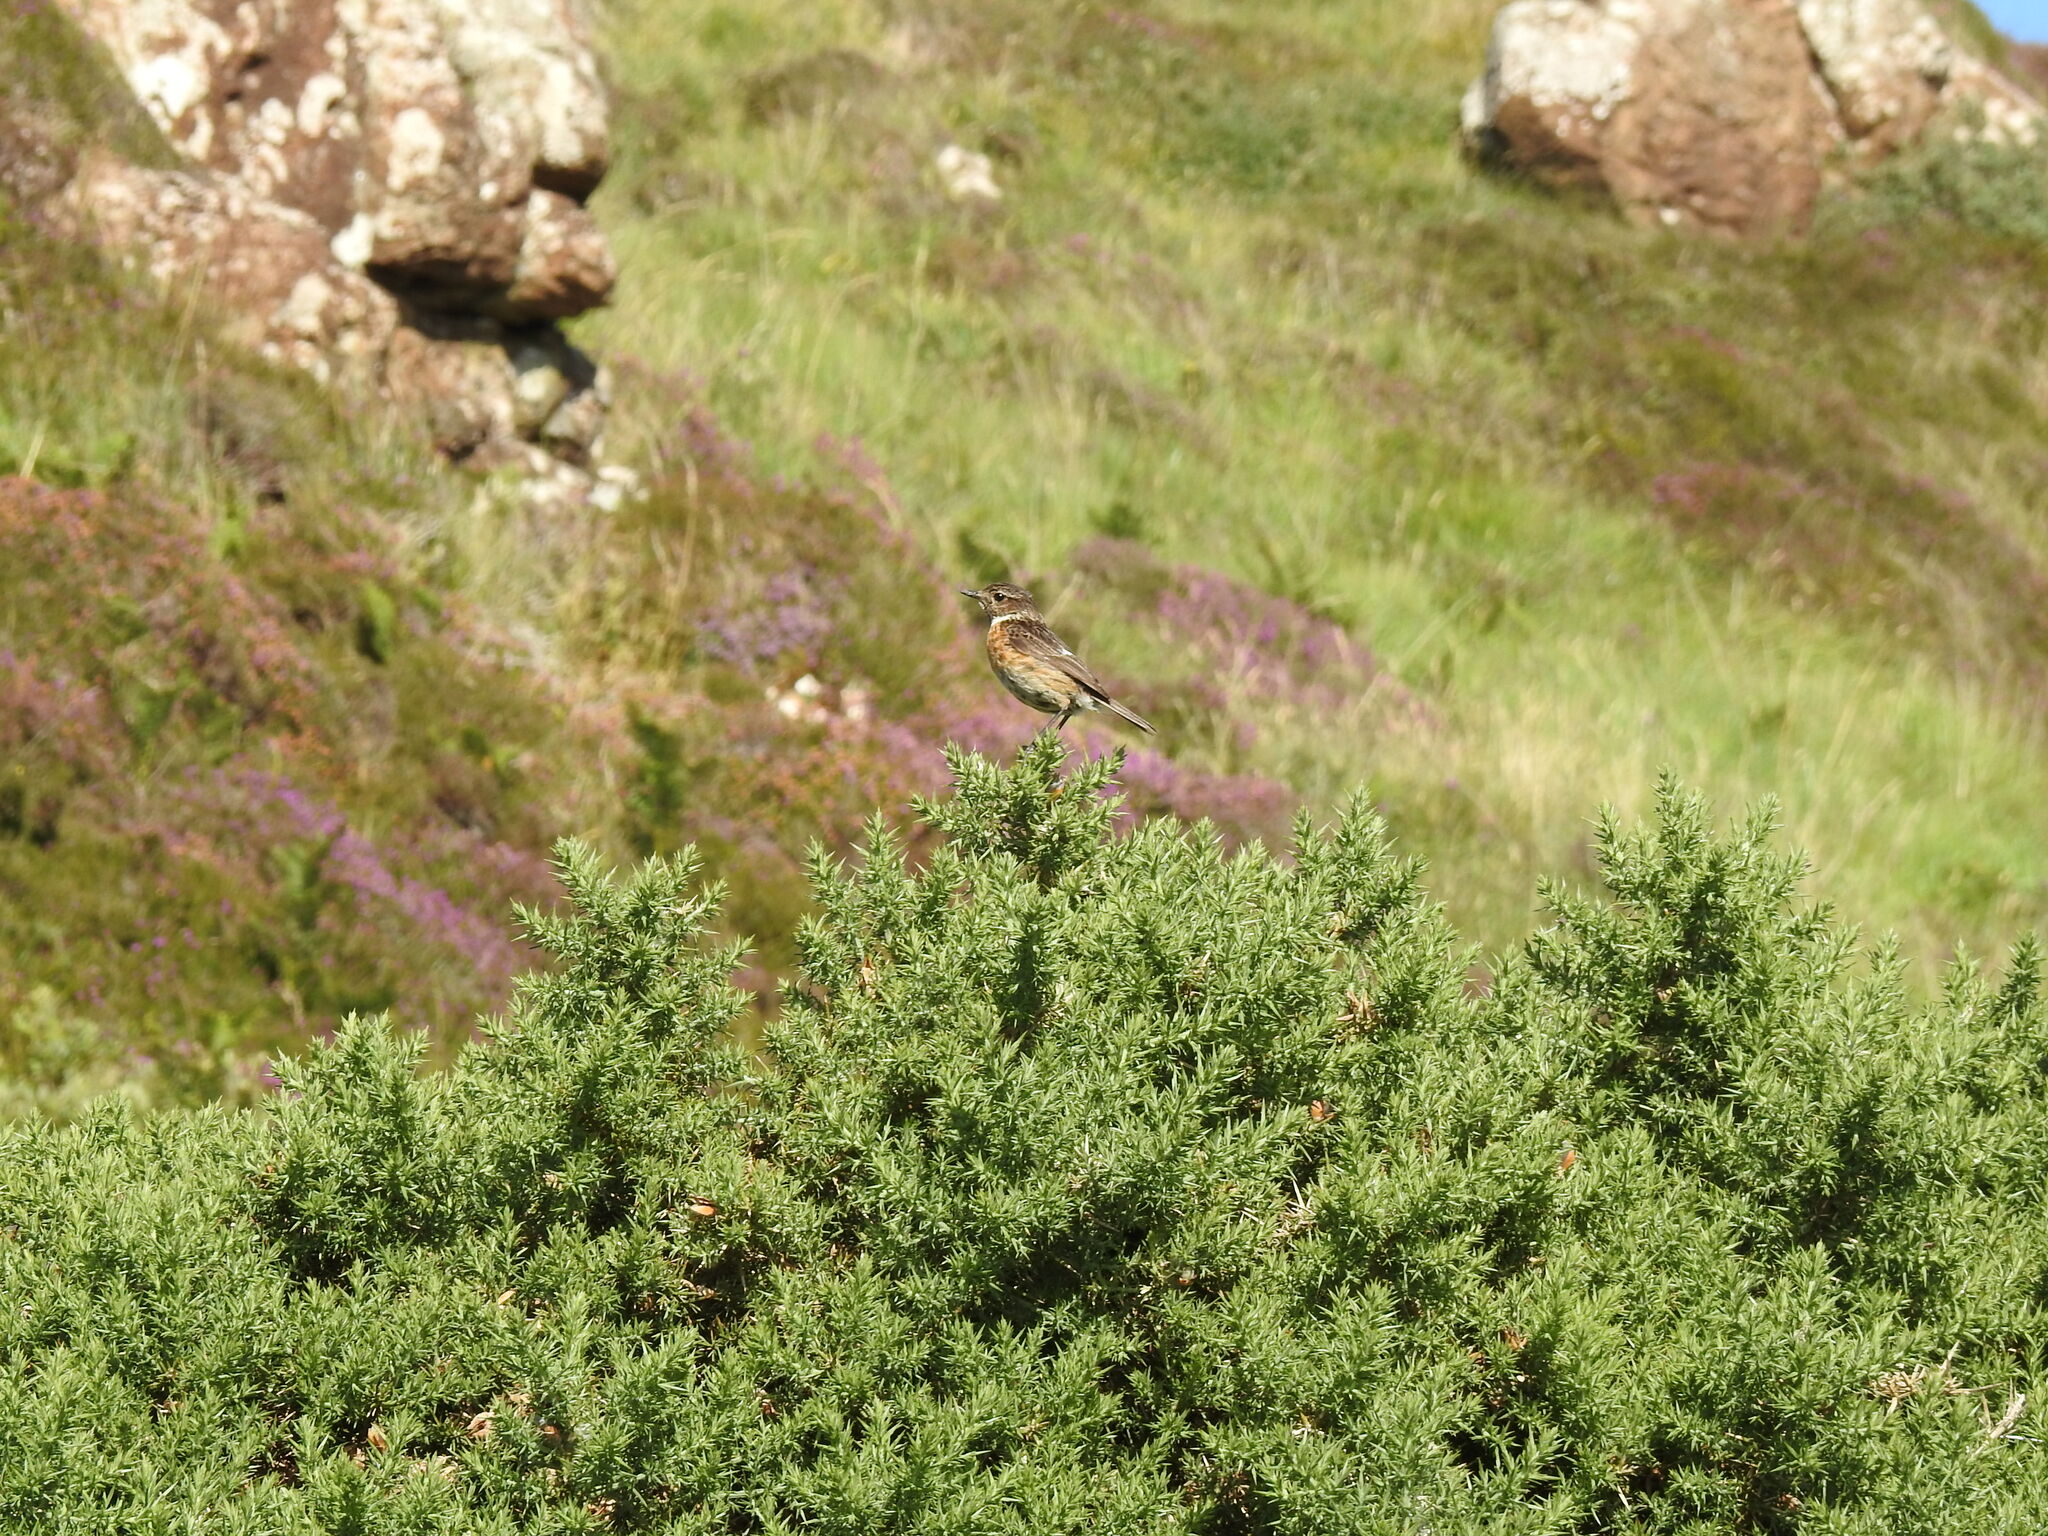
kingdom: Animalia
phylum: Chordata
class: Aves
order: Passeriformes
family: Muscicapidae
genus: Saxicola
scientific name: Saxicola rubicola
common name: European stonechat
